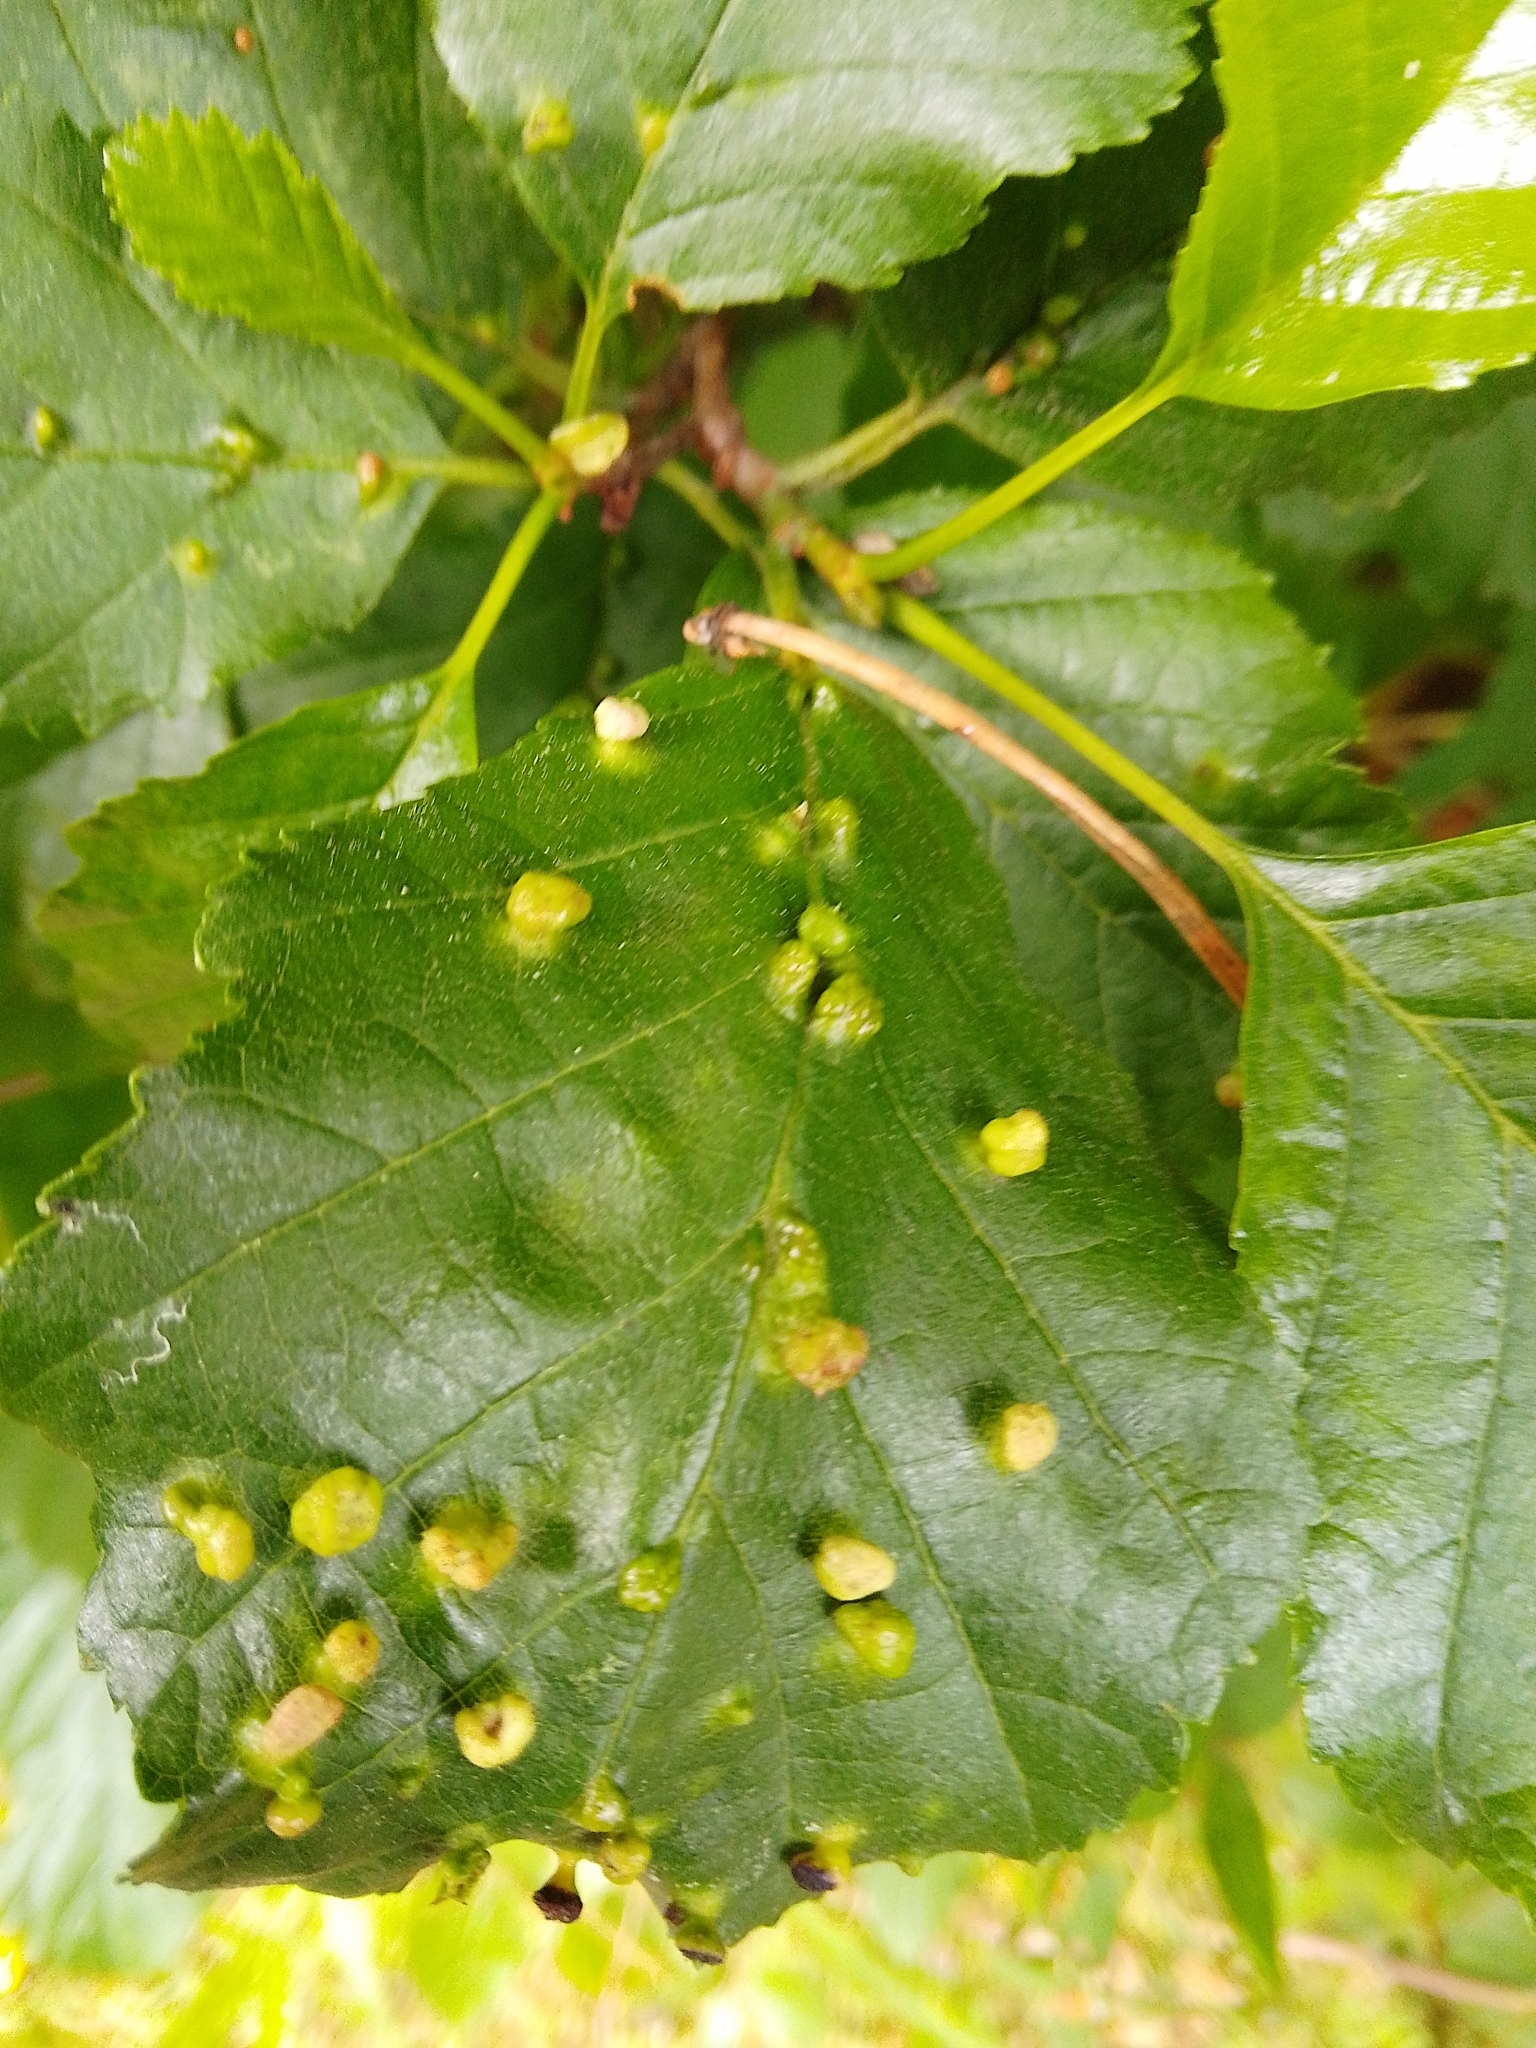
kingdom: Animalia
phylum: Arthropoda
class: Arachnida
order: Trombidiformes
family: Eriophyidae
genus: Eriophyes
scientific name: Eriophyes laevis
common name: Alder leaf gall mite
